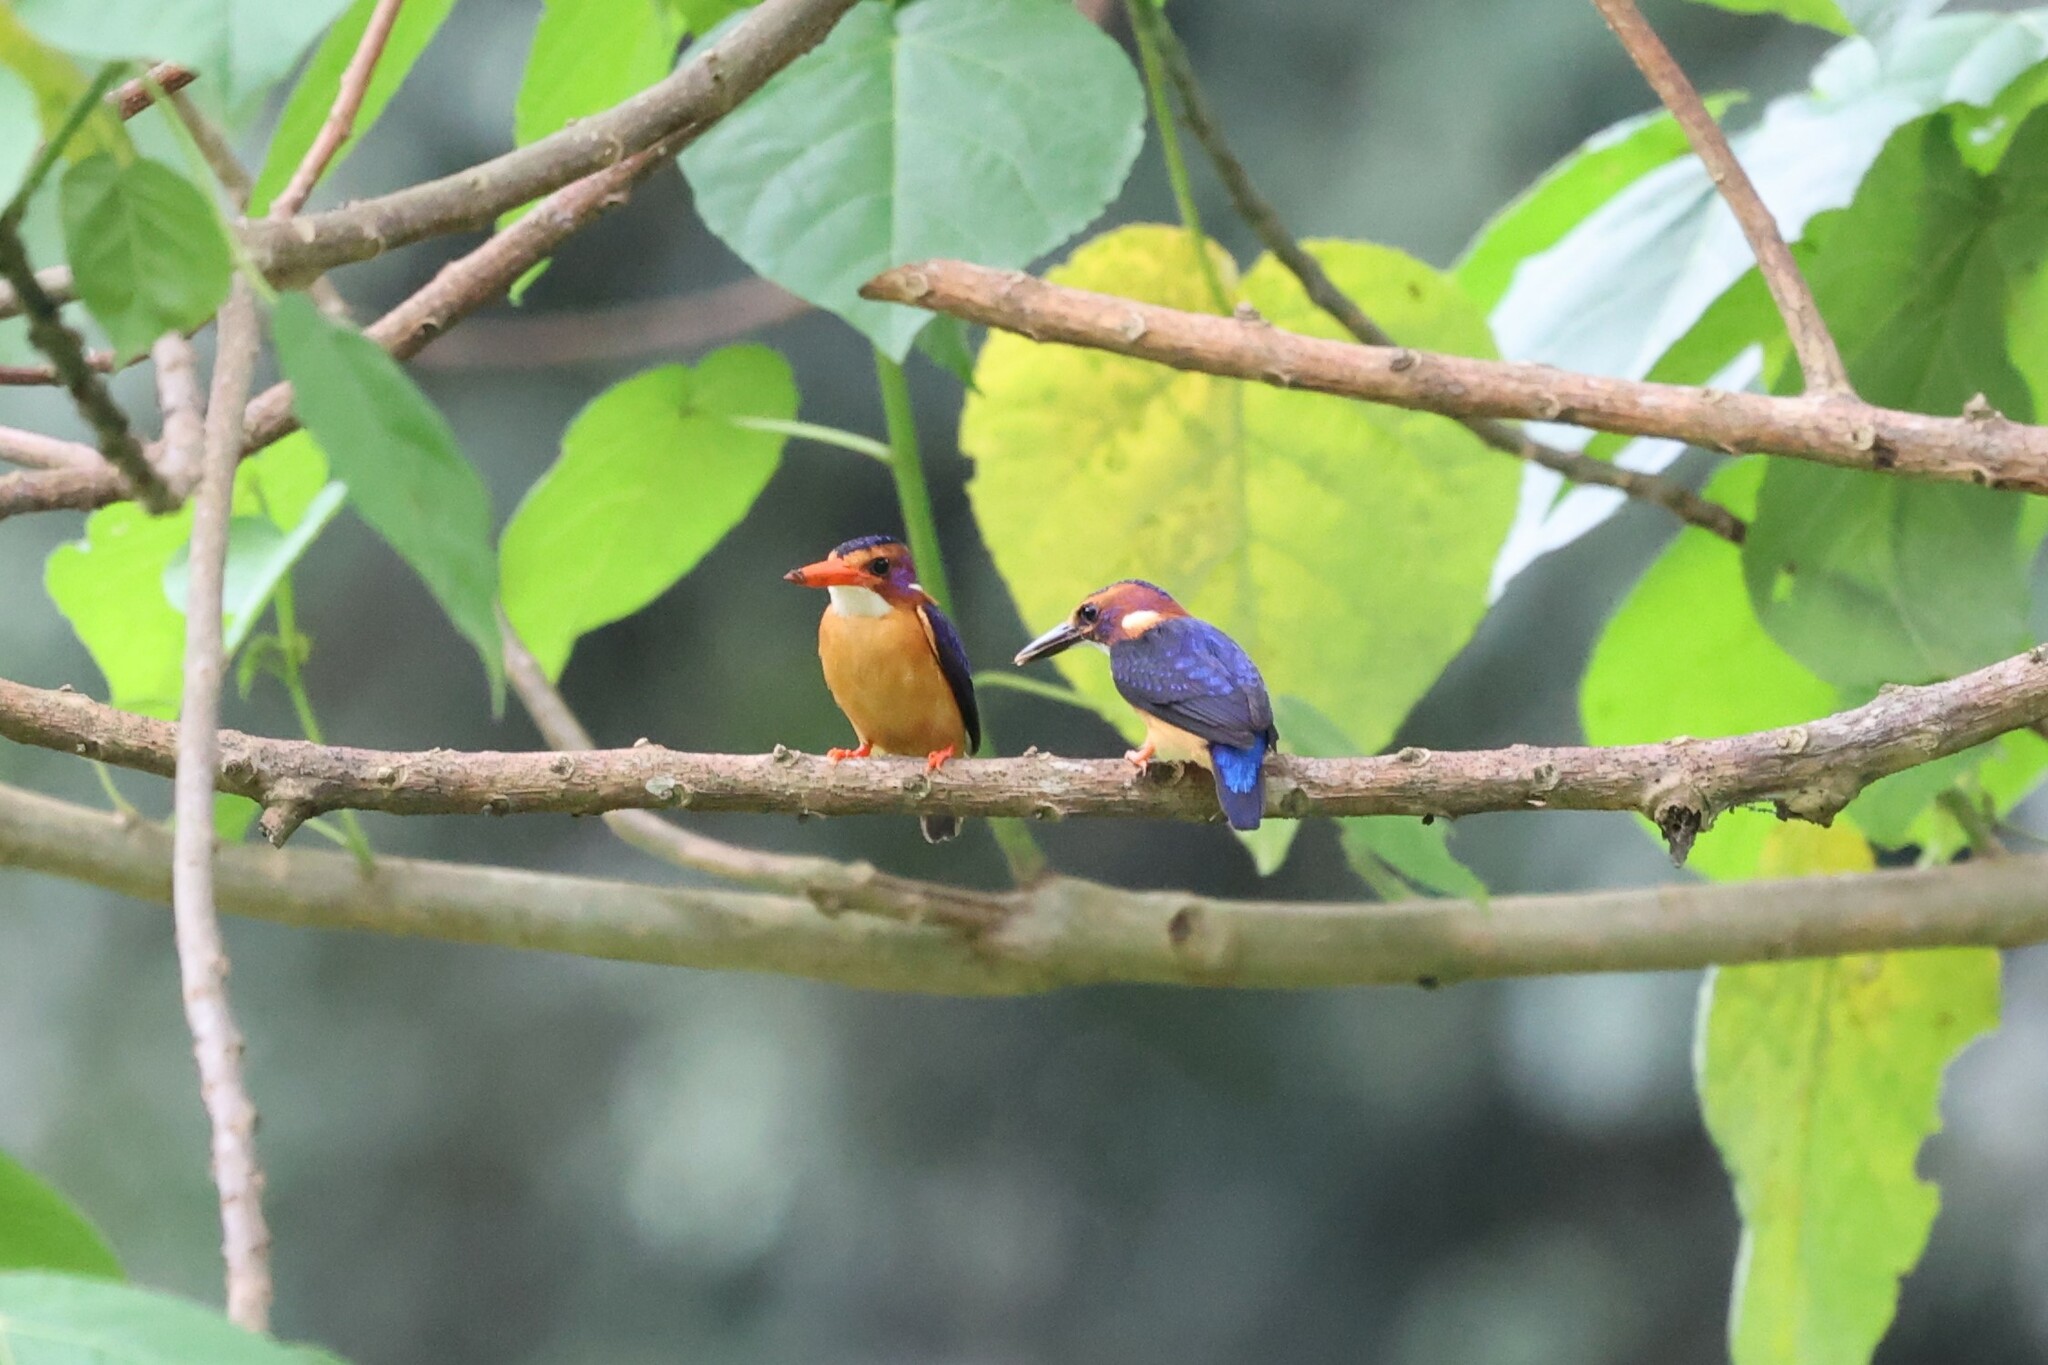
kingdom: Animalia
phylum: Chordata
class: Aves
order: Coraciiformes
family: Alcedinidae
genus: Ispidina
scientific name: Ispidina picta
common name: African pygmy-kingfisher
